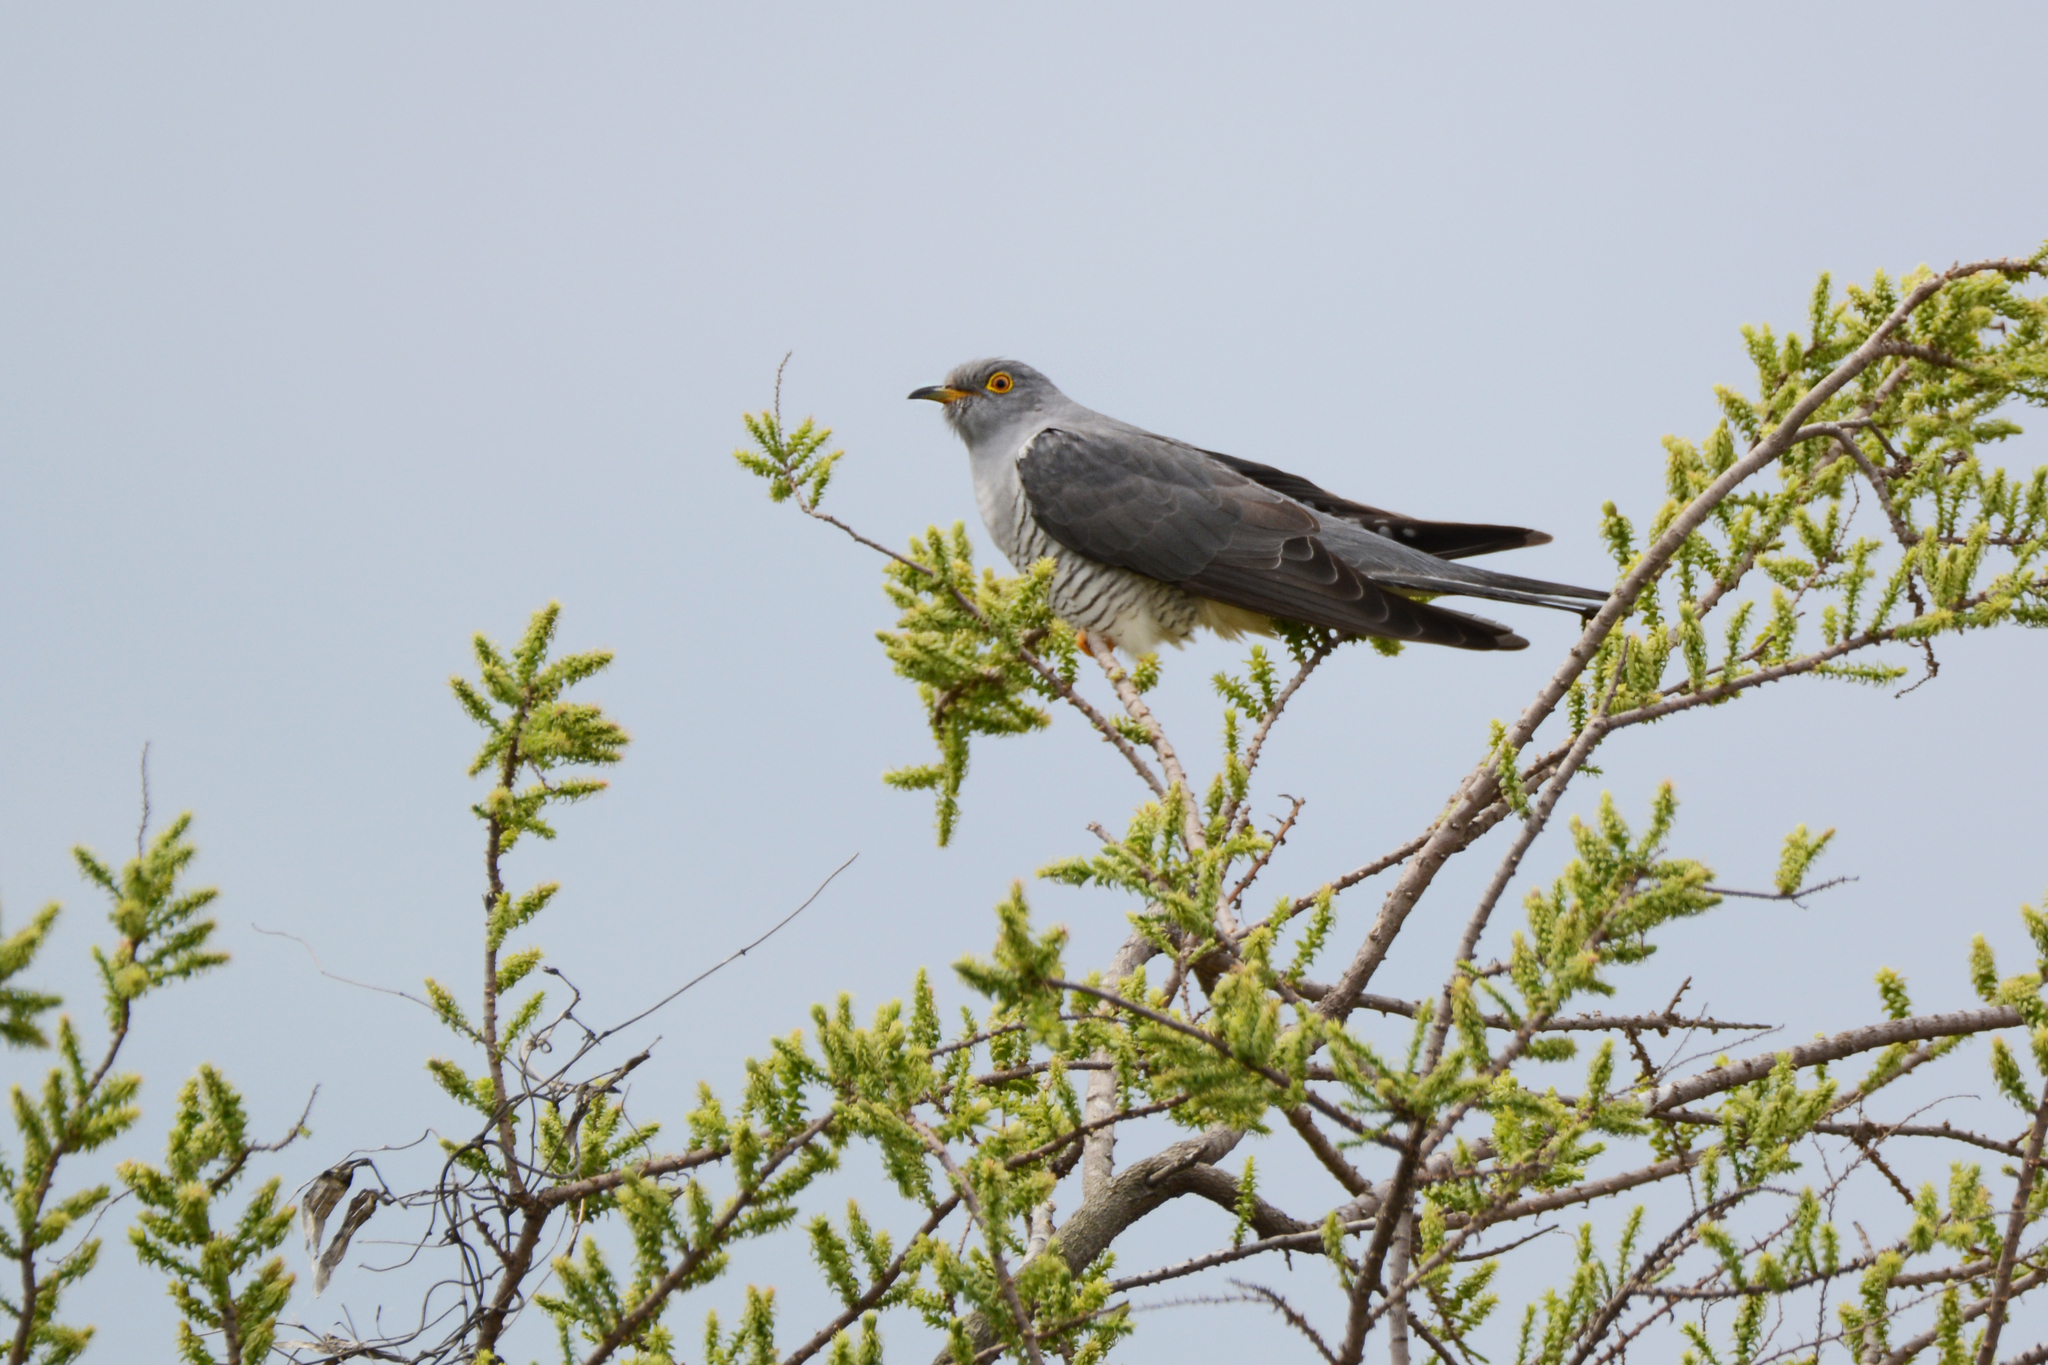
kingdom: Animalia
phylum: Chordata
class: Aves
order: Cuculiformes
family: Cuculidae
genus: Cuculus
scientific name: Cuculus canorus
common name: Common cuckoo
